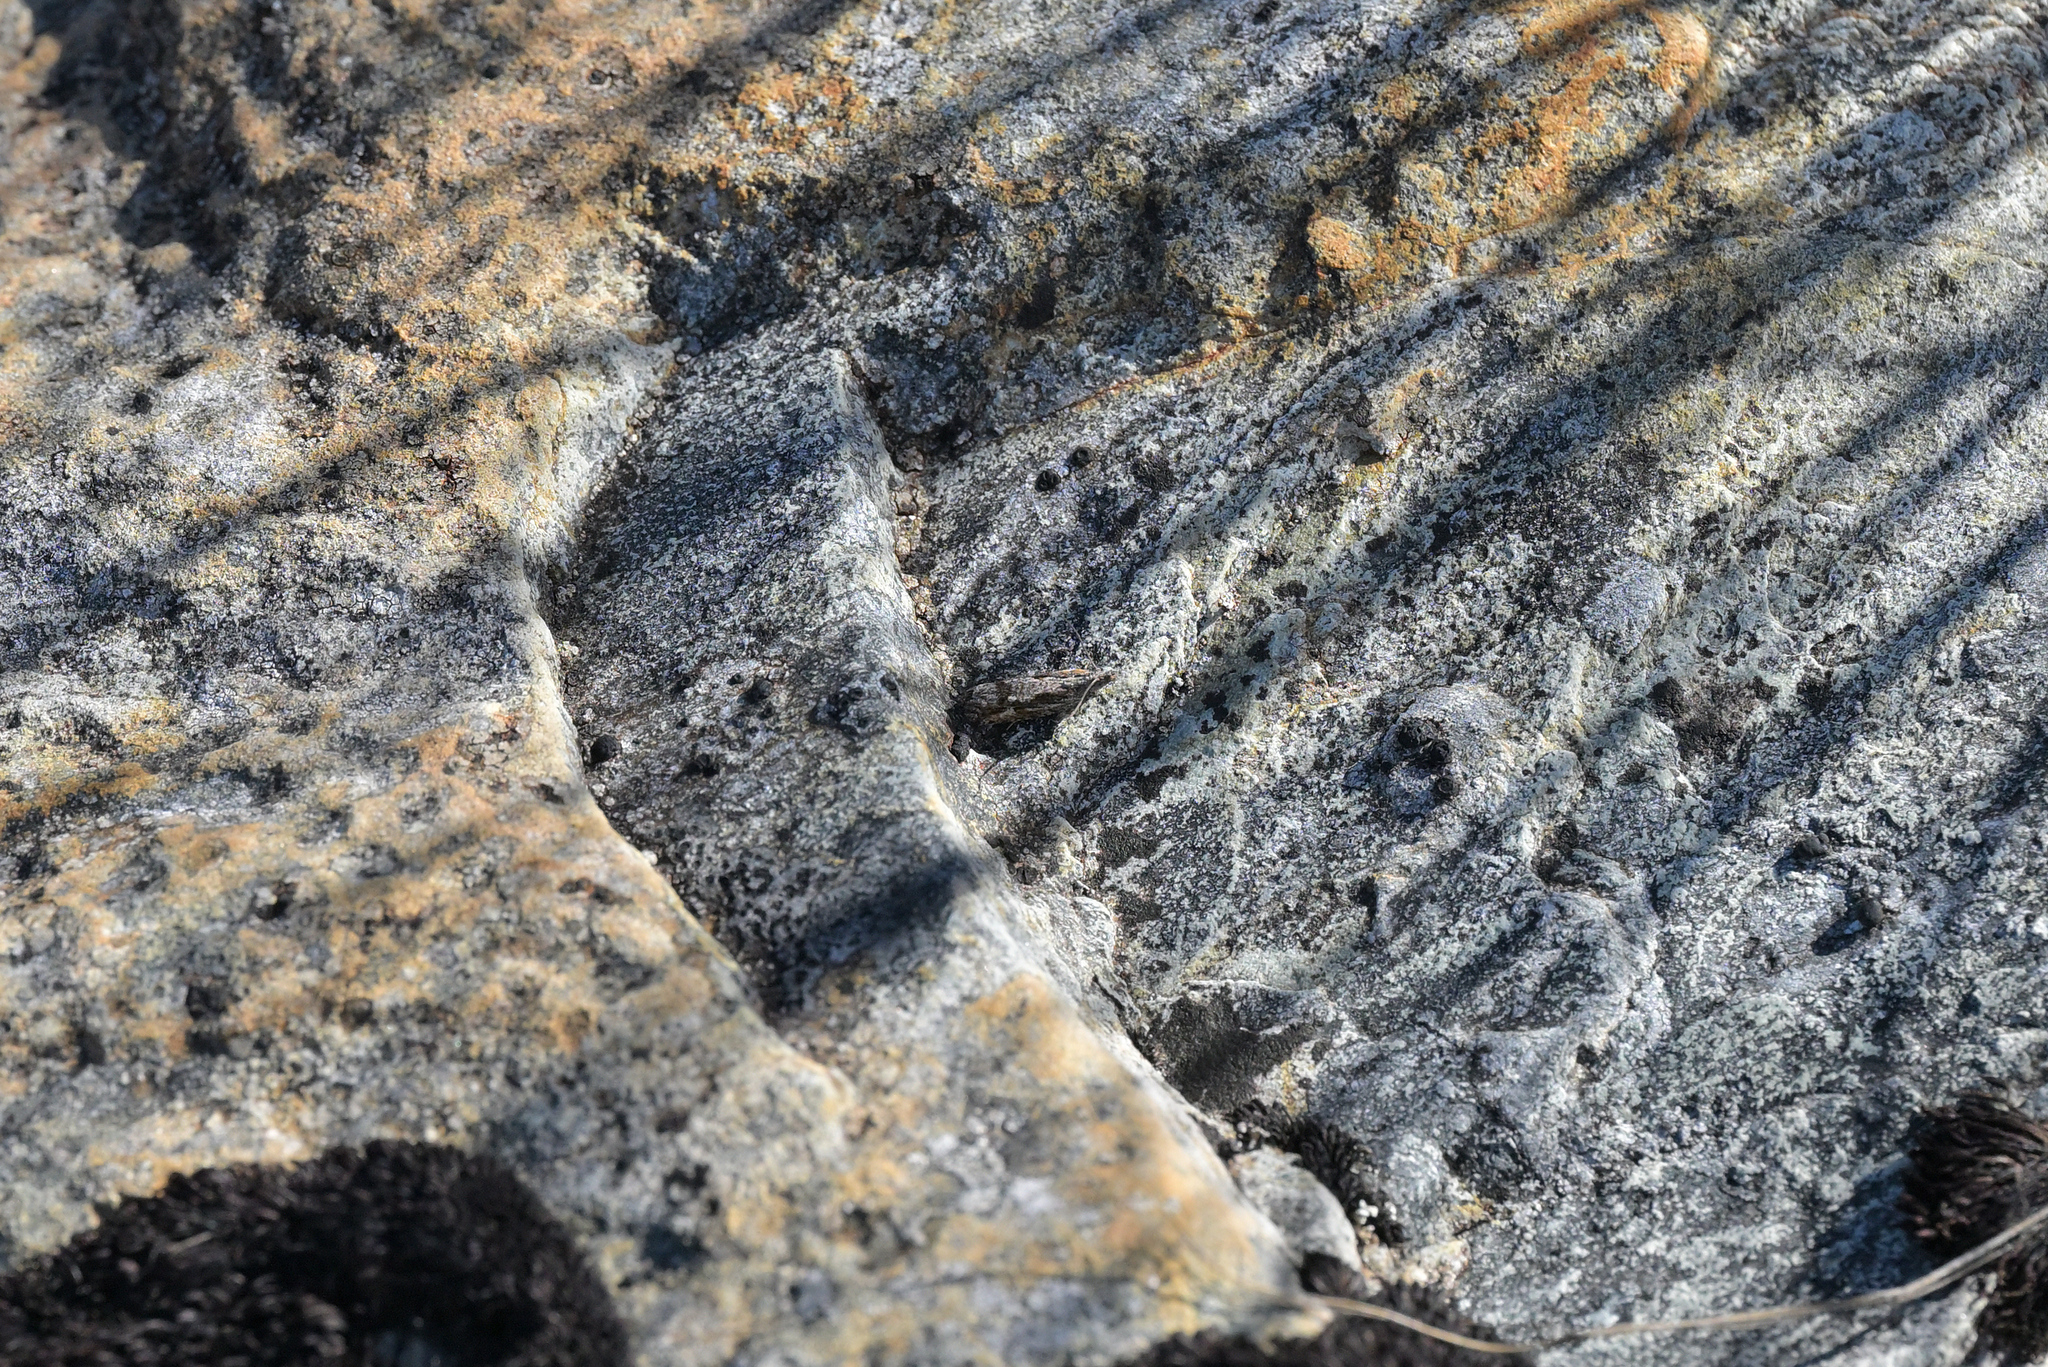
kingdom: Animalia
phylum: Arthropoda
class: Insecta
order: Lepidoptera
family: Tortricidae
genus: Strepsicrates
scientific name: Strepsicrates ejectana
